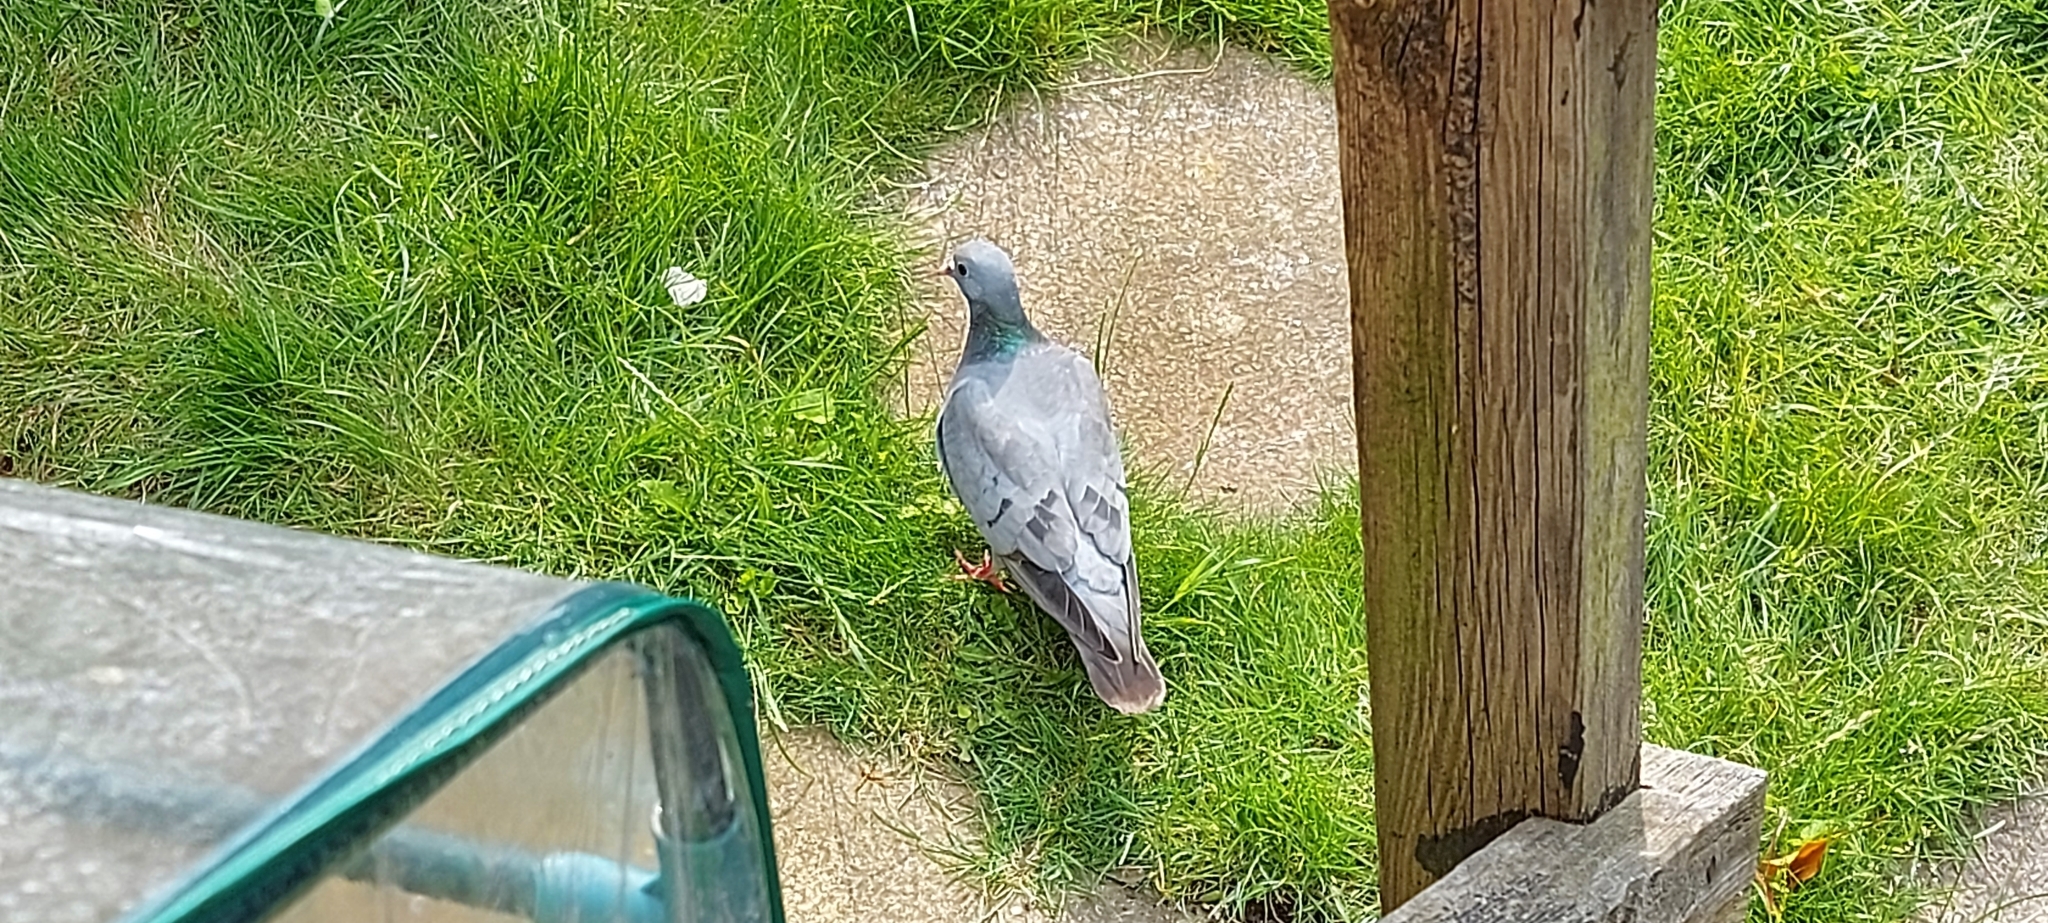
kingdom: Animalia
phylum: Chordata
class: Aves
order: Columbiformes
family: Columbidae
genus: Columba
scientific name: Columba oenas
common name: Stock dove
